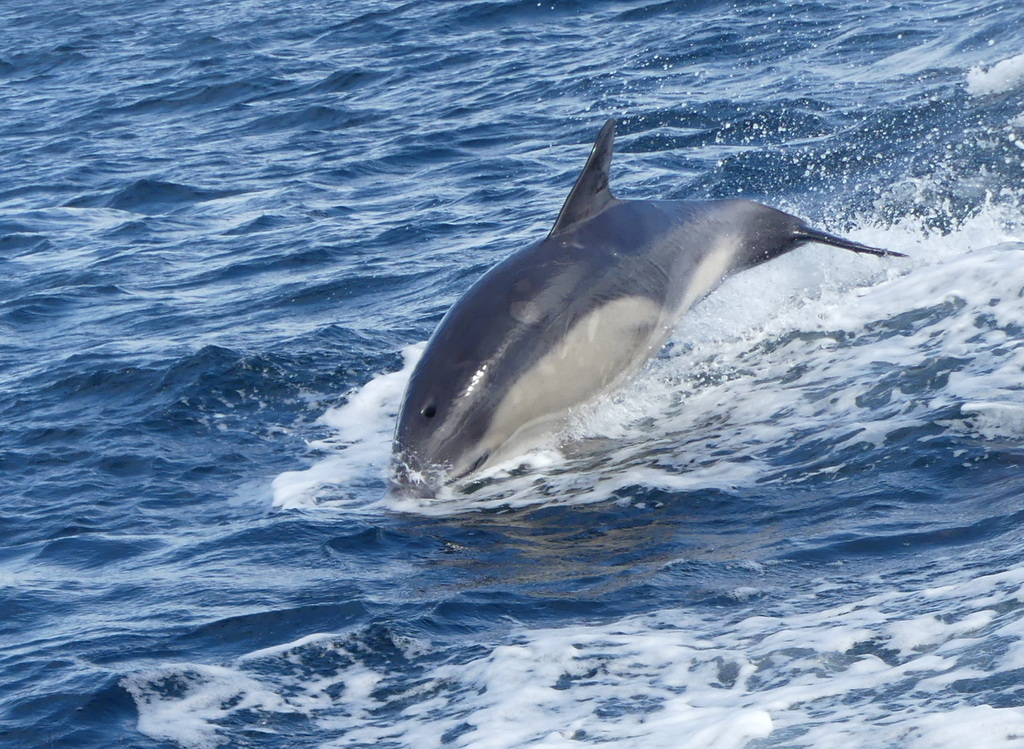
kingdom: Animalia
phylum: Chordata
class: Mammalia
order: Cetacea
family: Delphinidae
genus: Delphinus
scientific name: Delphinus delphis
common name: Common dolphin
